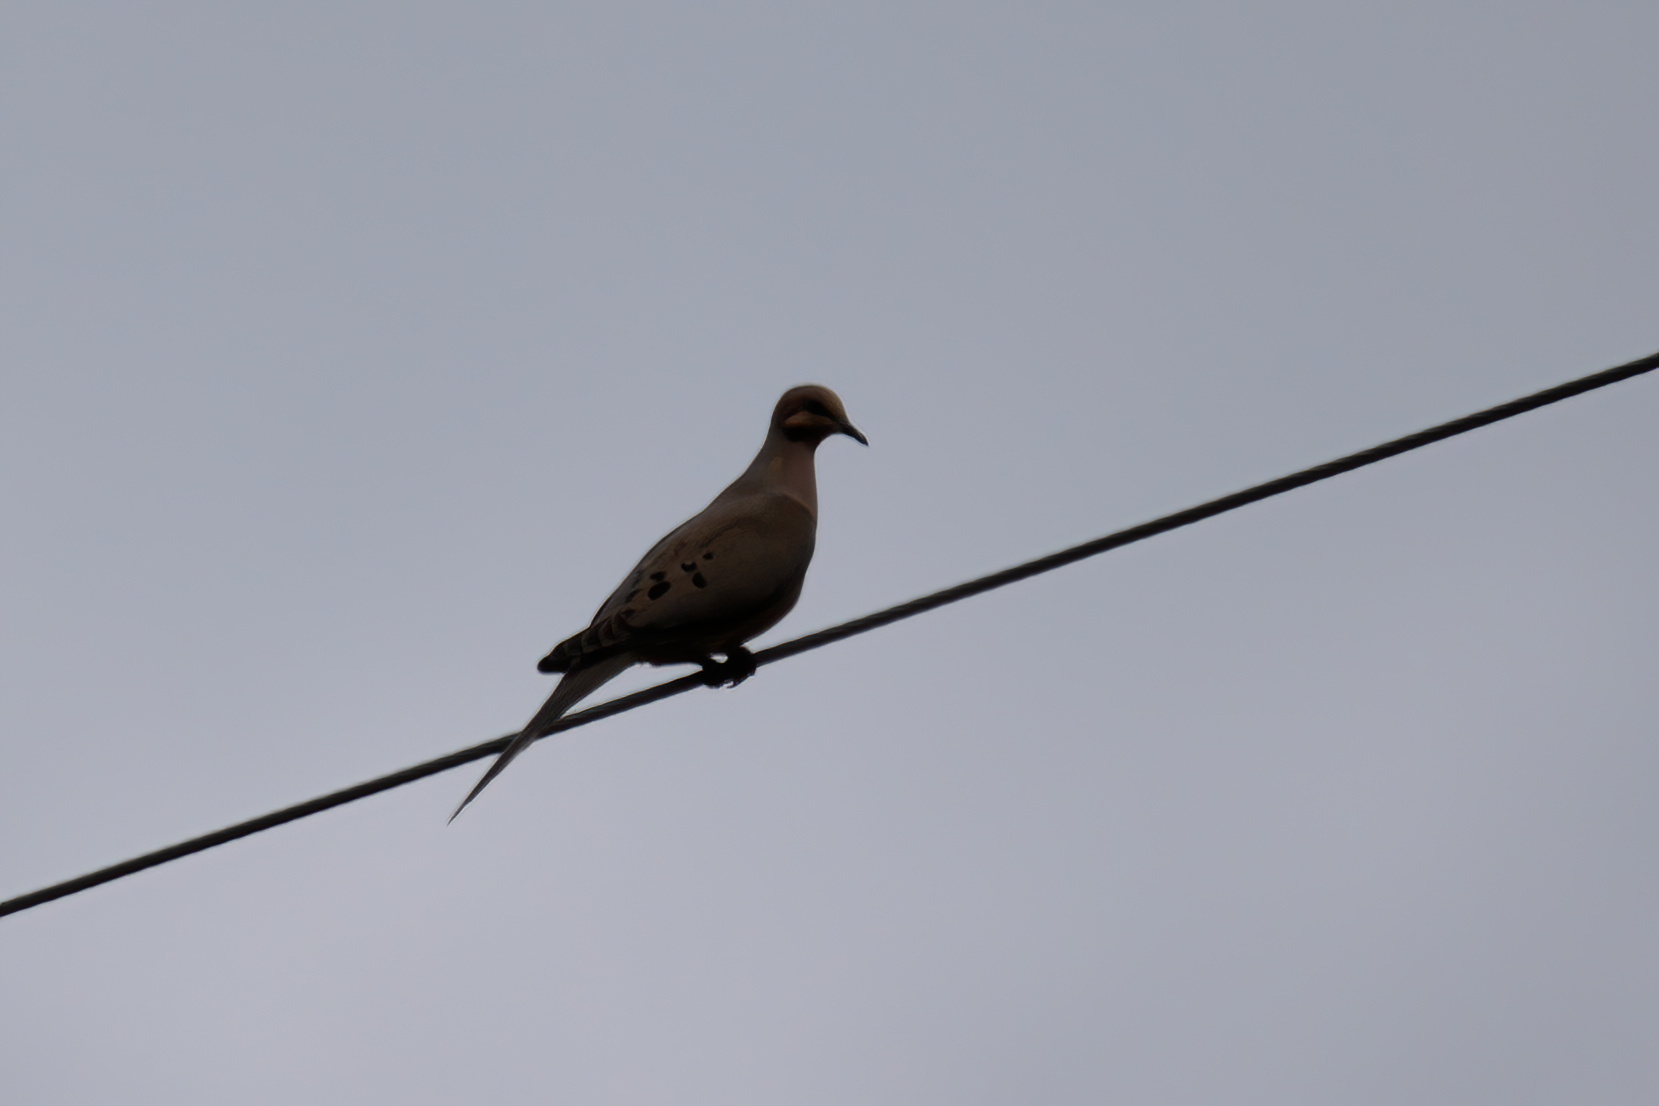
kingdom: Animalia
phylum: Chordata
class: Aves
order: Columbiformes
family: Columbidae
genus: Zenaida
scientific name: Zenaida macroura
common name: Mourning dove
